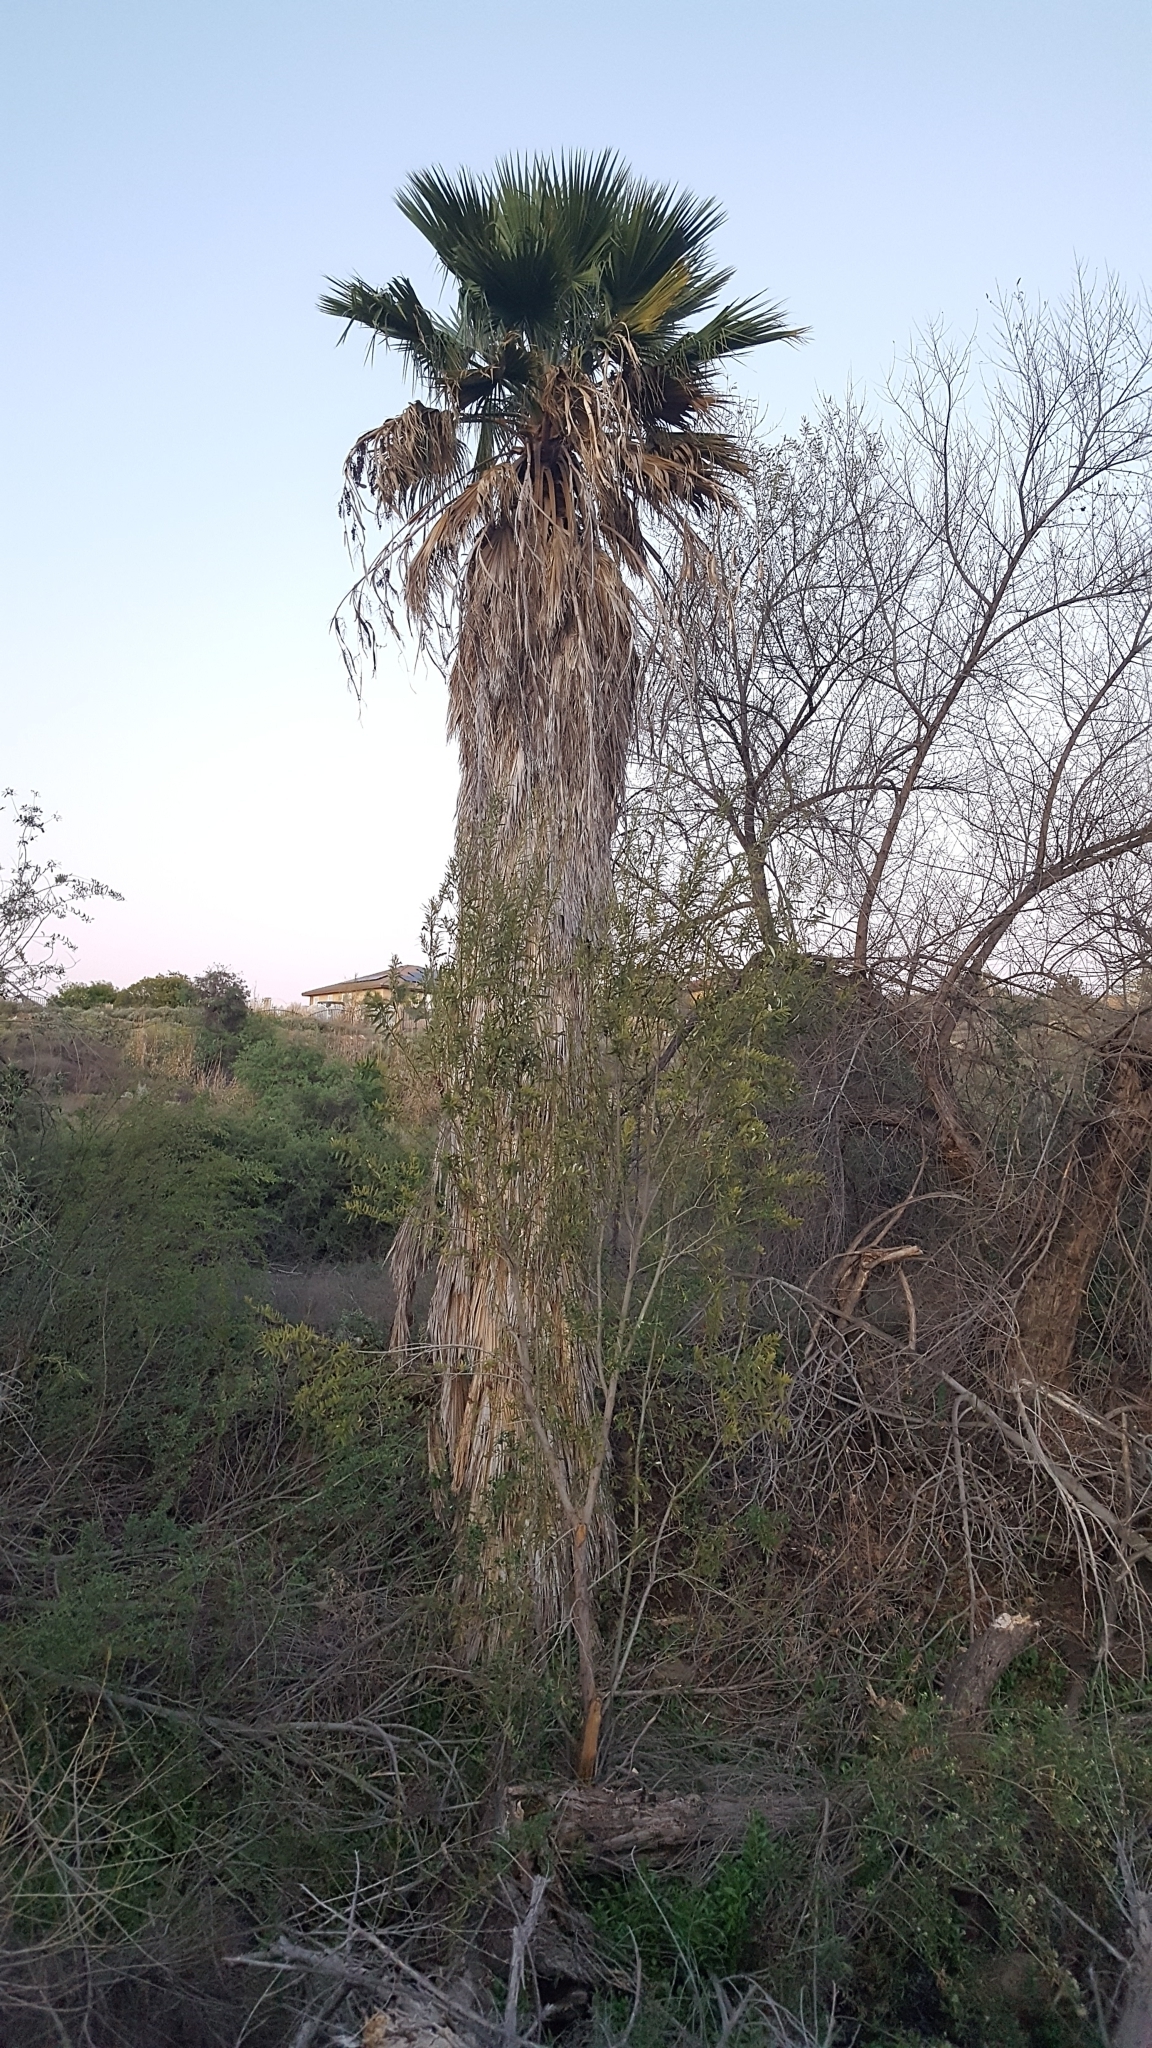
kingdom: Plantae
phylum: Tracheophyta
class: Liliopsida
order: Arecales
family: Arecaceae
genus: Washingtonia
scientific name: Washingtonia robusta
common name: Mexican fan palm
